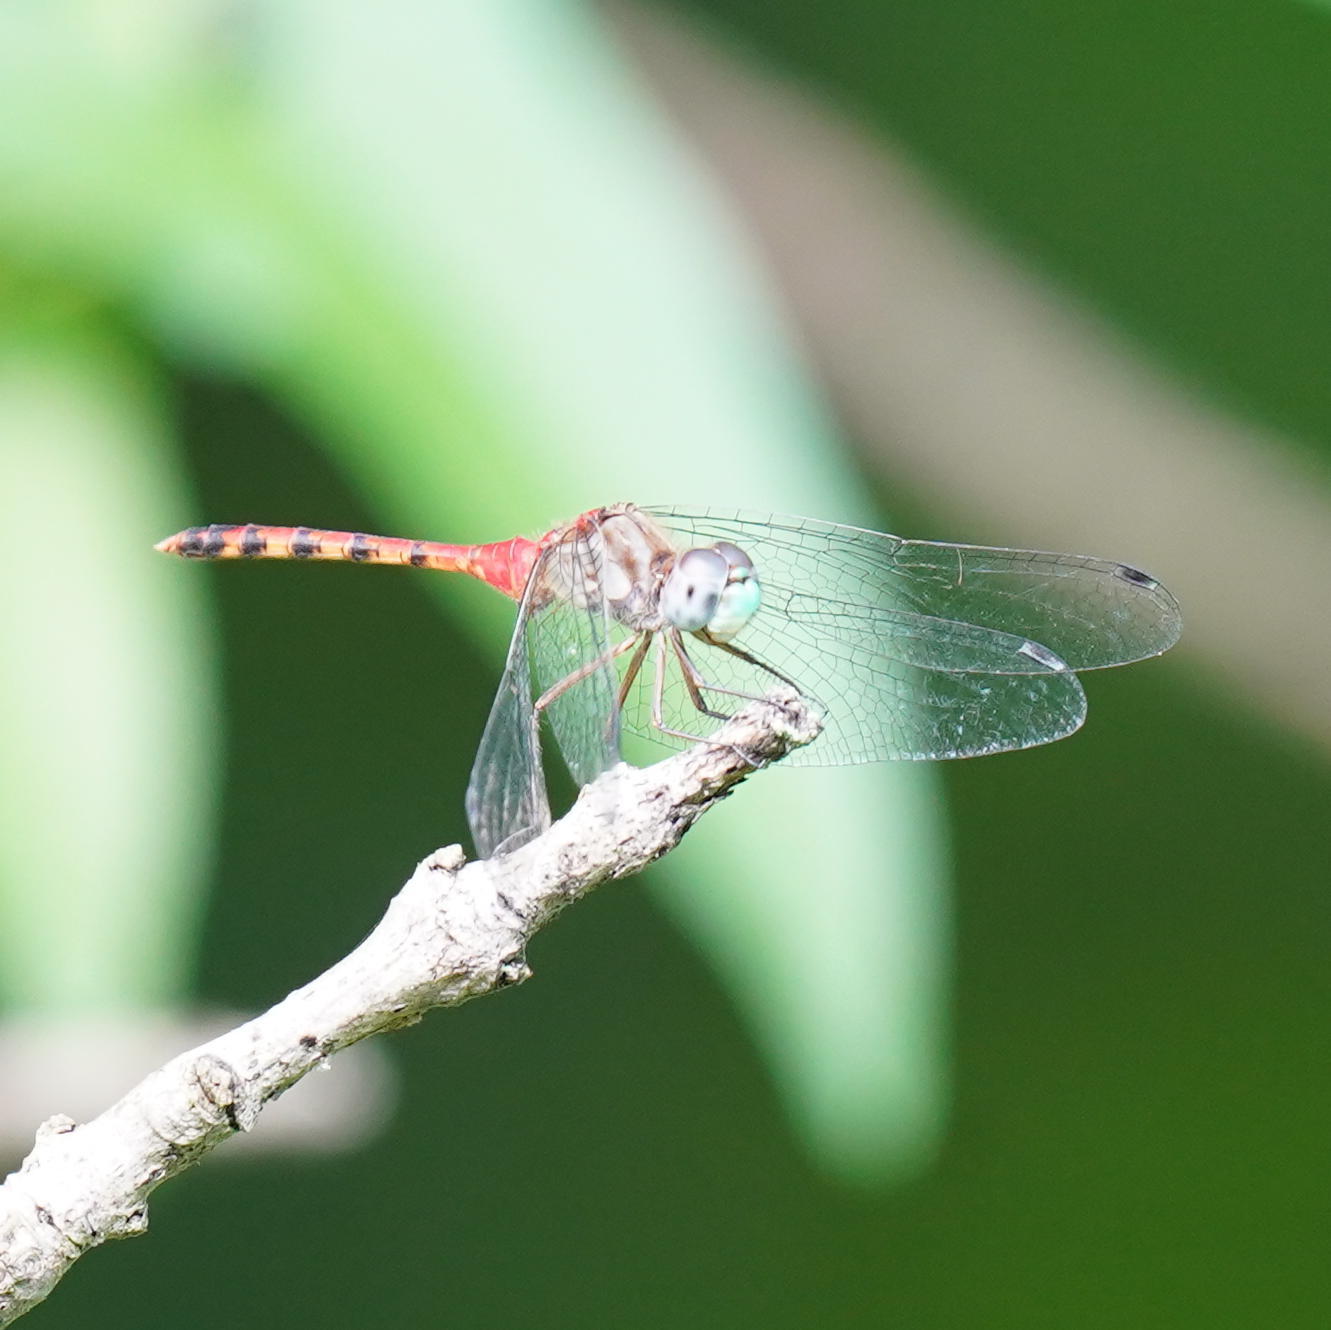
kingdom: Animalia
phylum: Arthropoda
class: Insecta
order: Odonata
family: Libellulidae
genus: Sympetrum
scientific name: Sympetrum ambiguum
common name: Blue-faced meadowhawk
